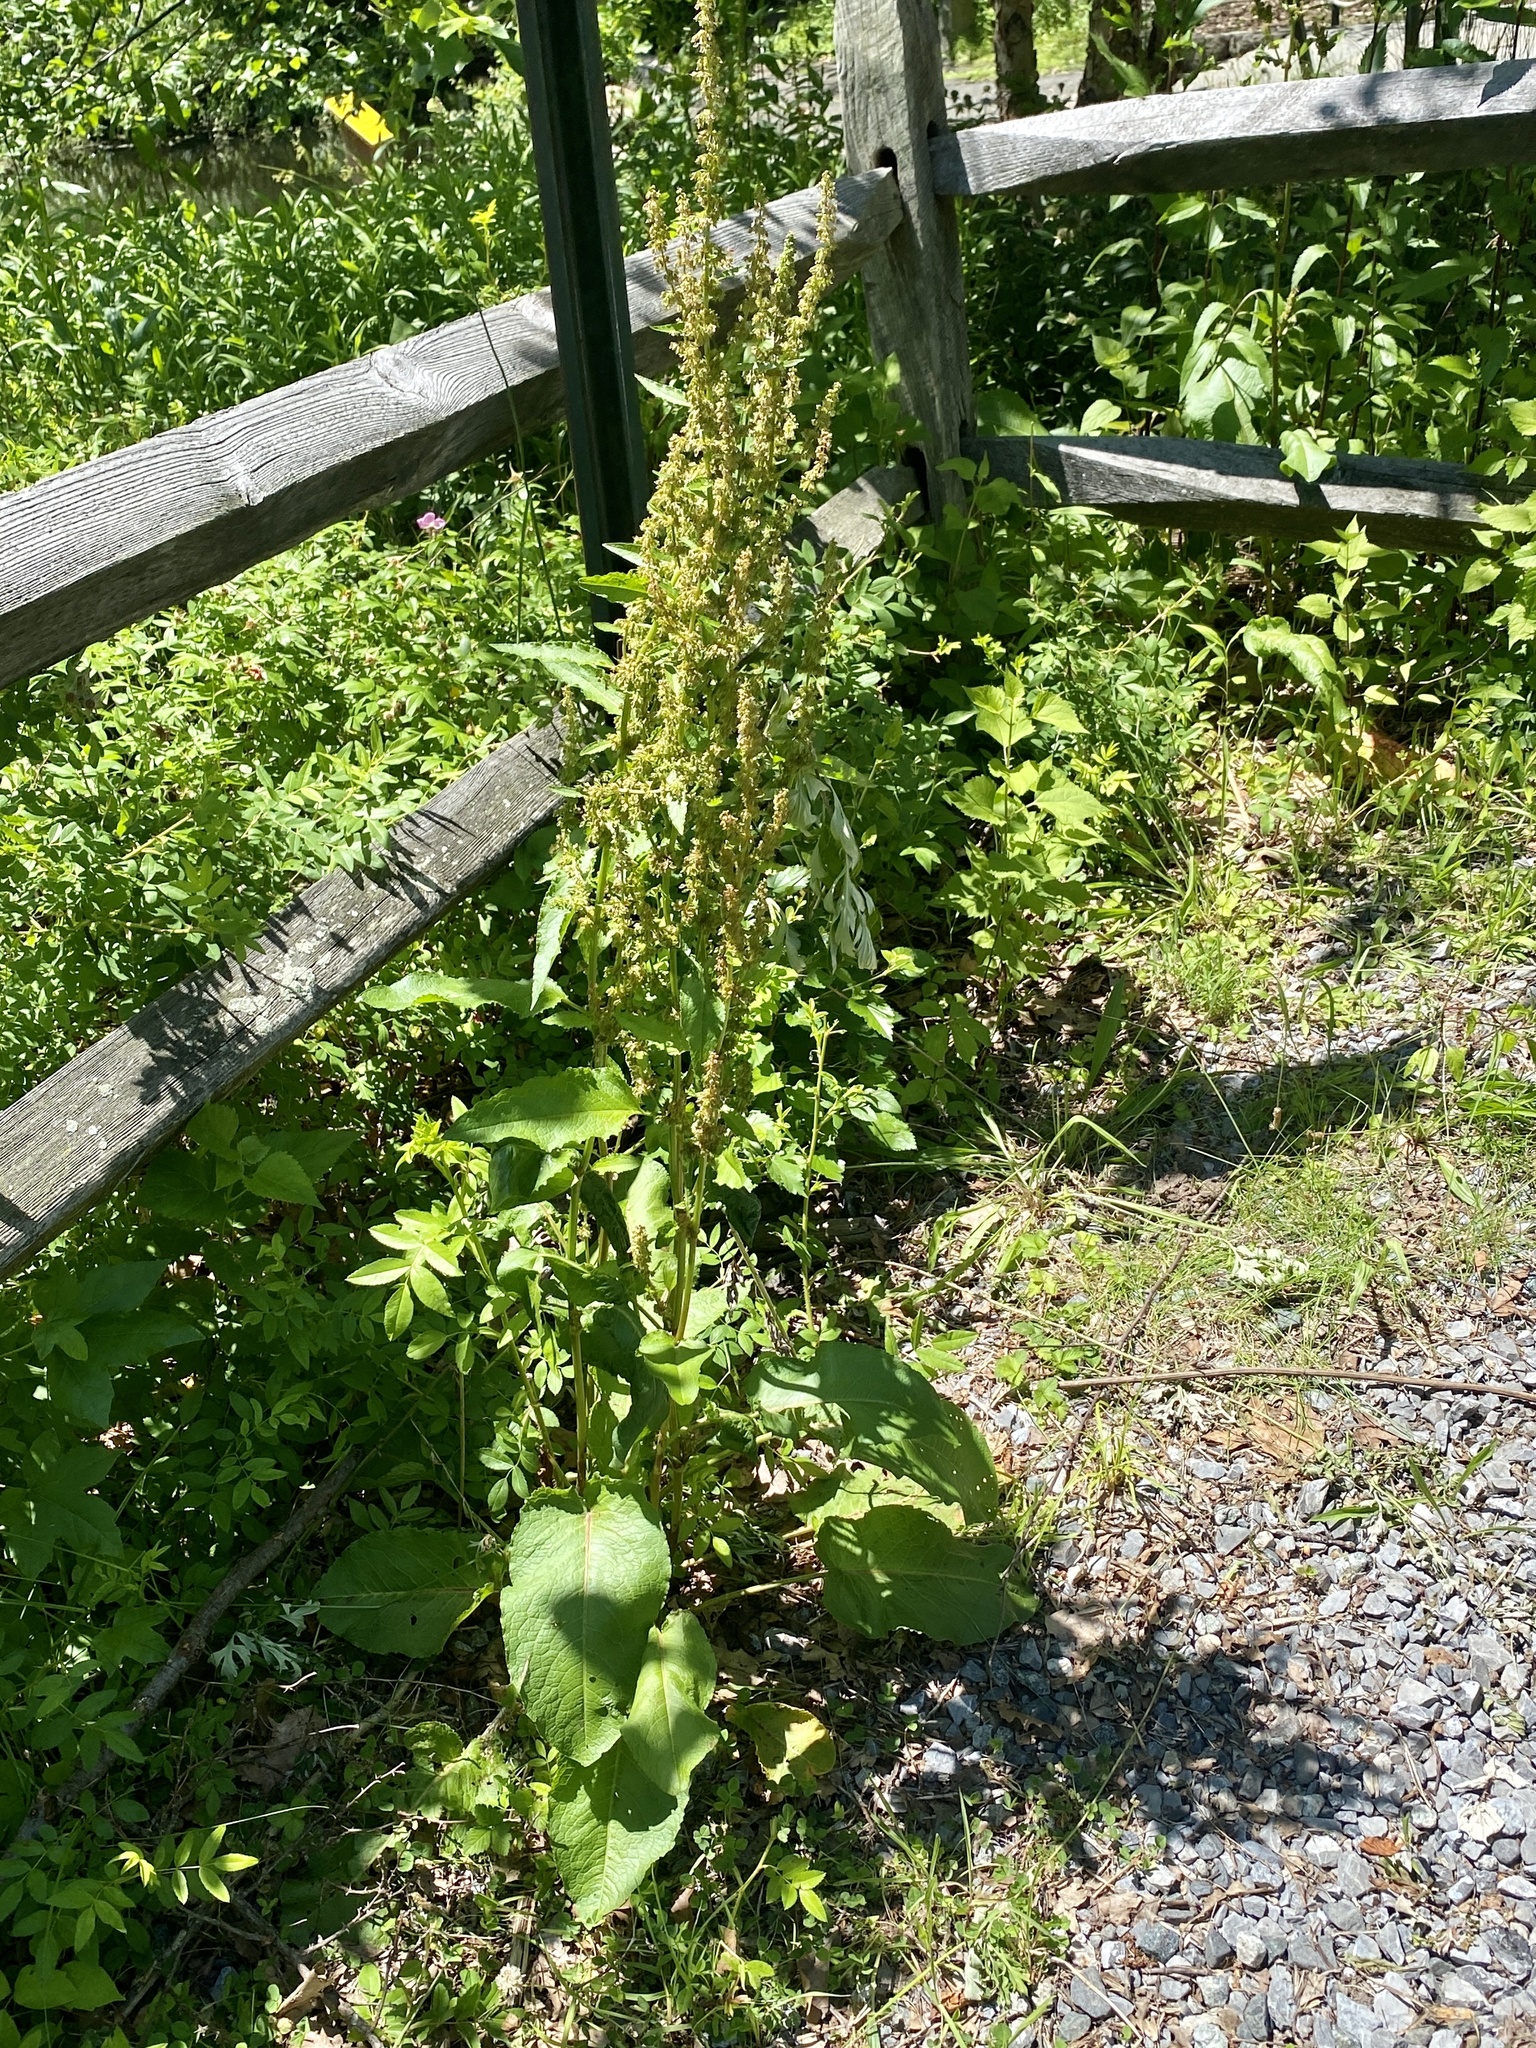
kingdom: Plantae
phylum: Tracheophyta
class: Magnoliopsida
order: Caryophyllales
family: Polygonaceae
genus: Rumex
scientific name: Rumex obtusifolius
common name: Bitter dock
